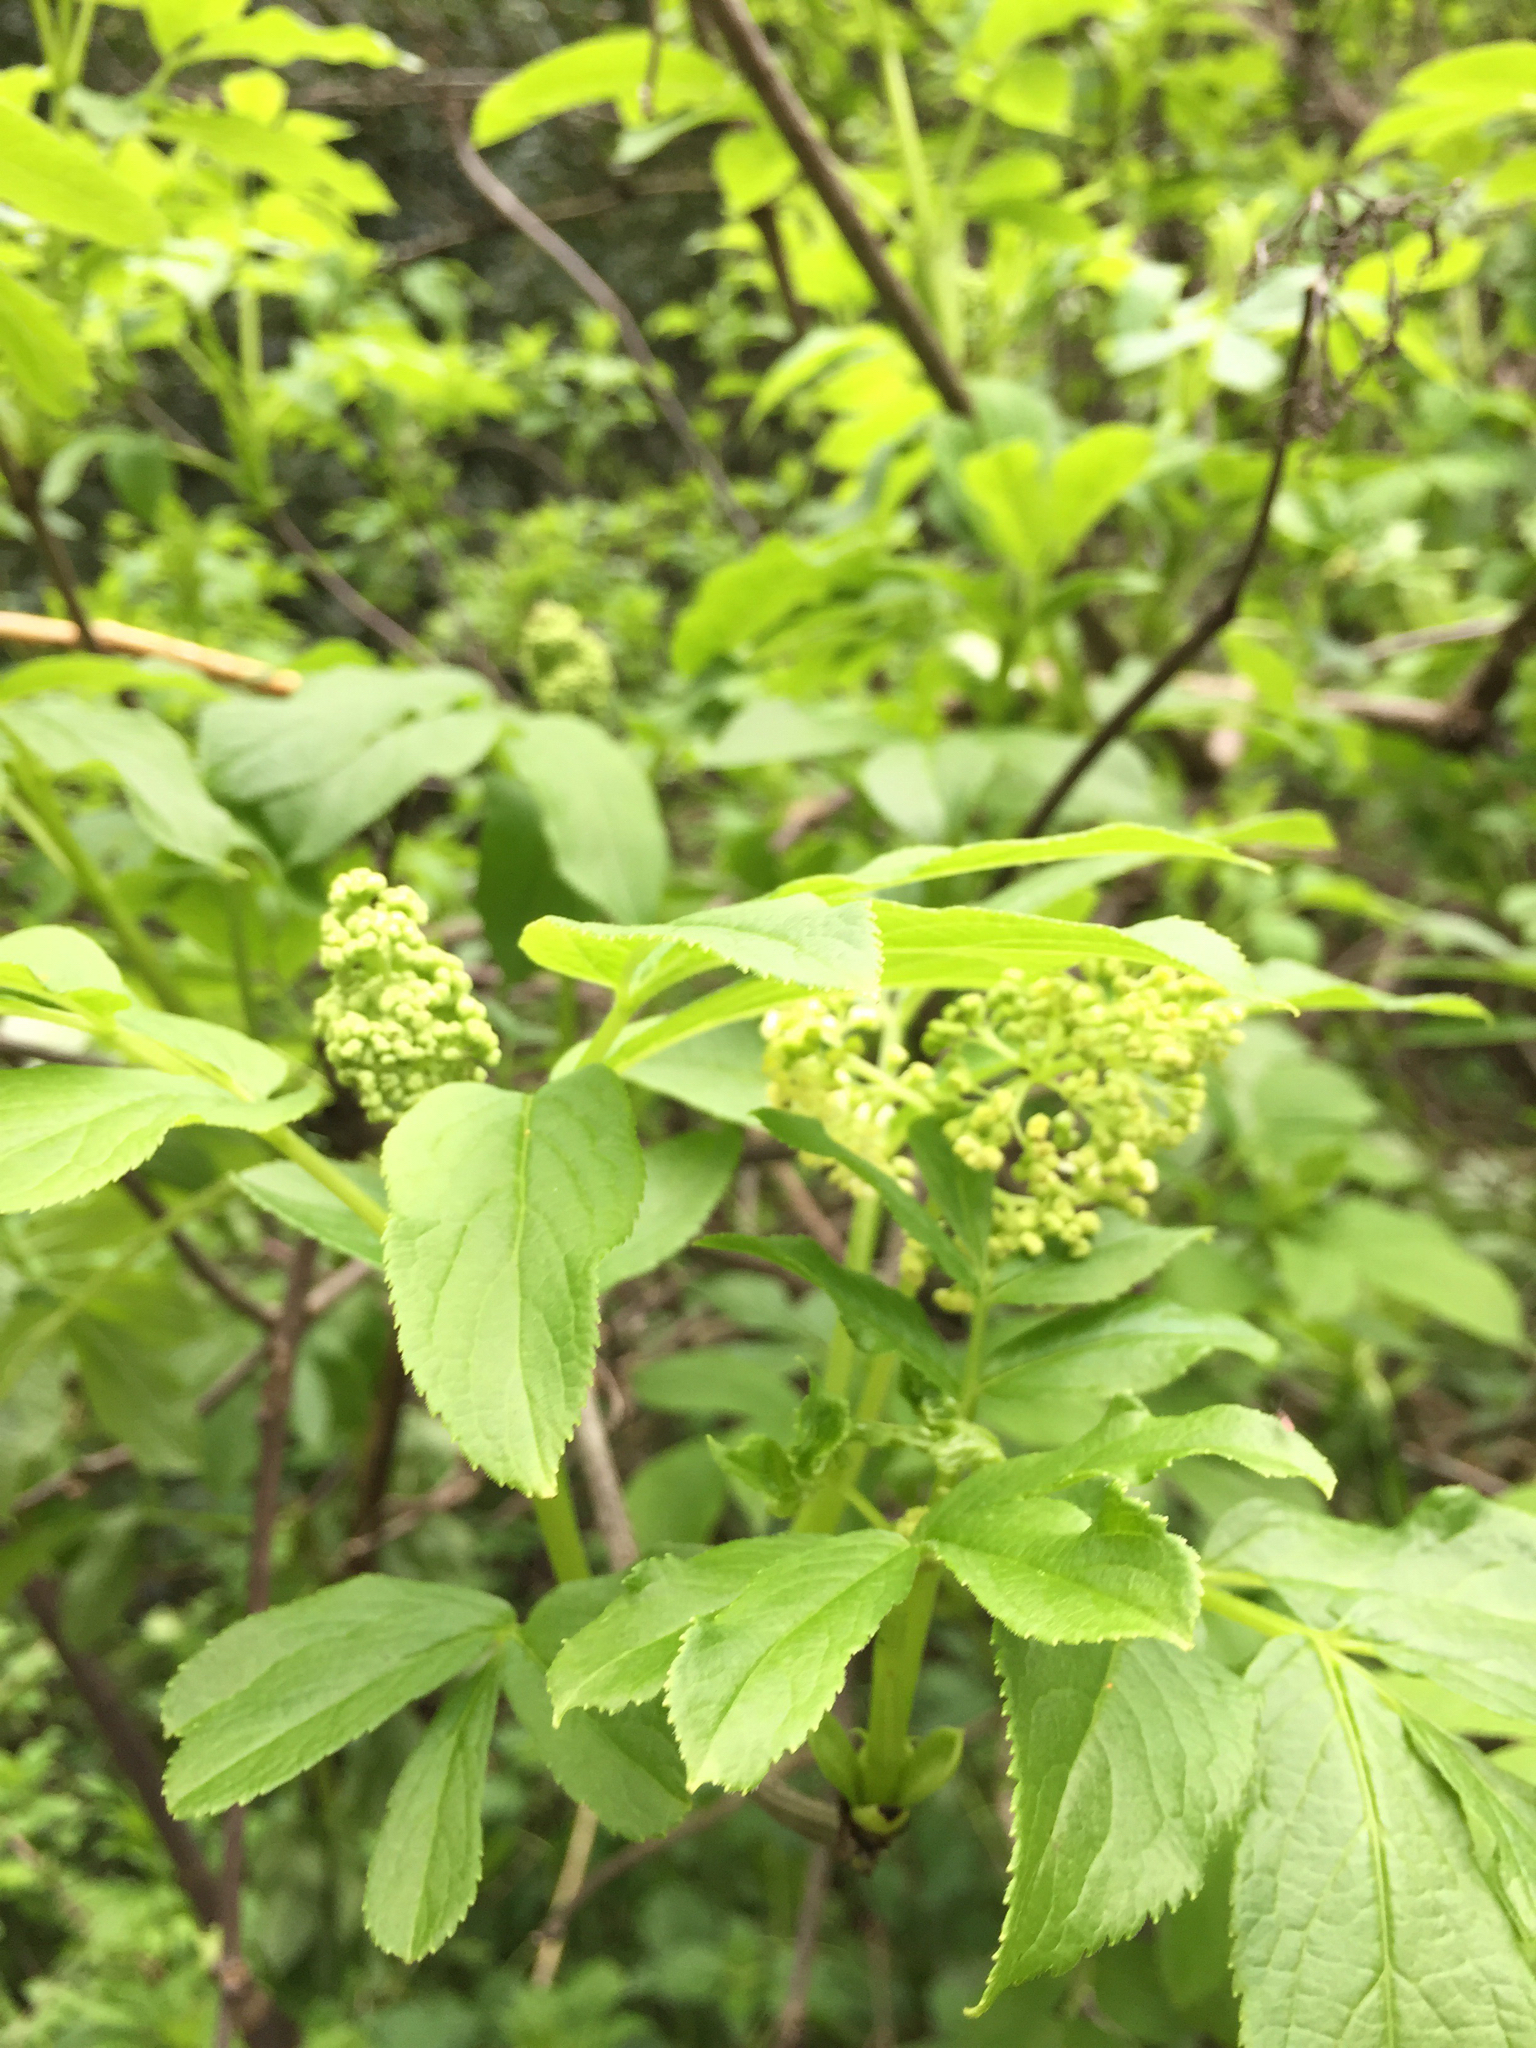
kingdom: Plantae
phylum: Tracheophyta
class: Magnoliopsida
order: Dipsacales
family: Viburnaceae
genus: Sambucus
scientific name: Sambucus racemosa
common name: Red-berried elder
